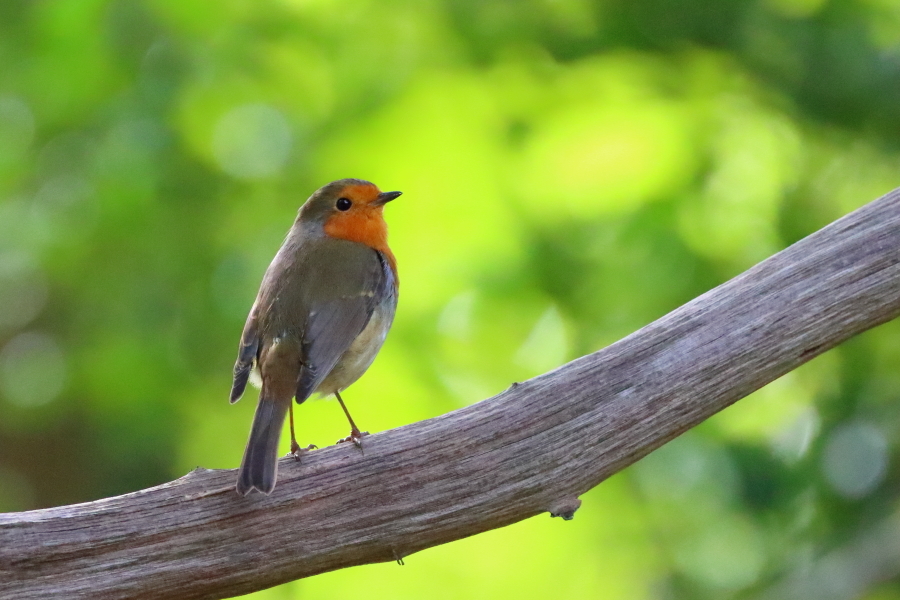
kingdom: Animalia
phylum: Chordata
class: Aves
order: Passeriformes
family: Muscicapidae
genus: Erithacus
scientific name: Erithacus rubecula
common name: European robin
